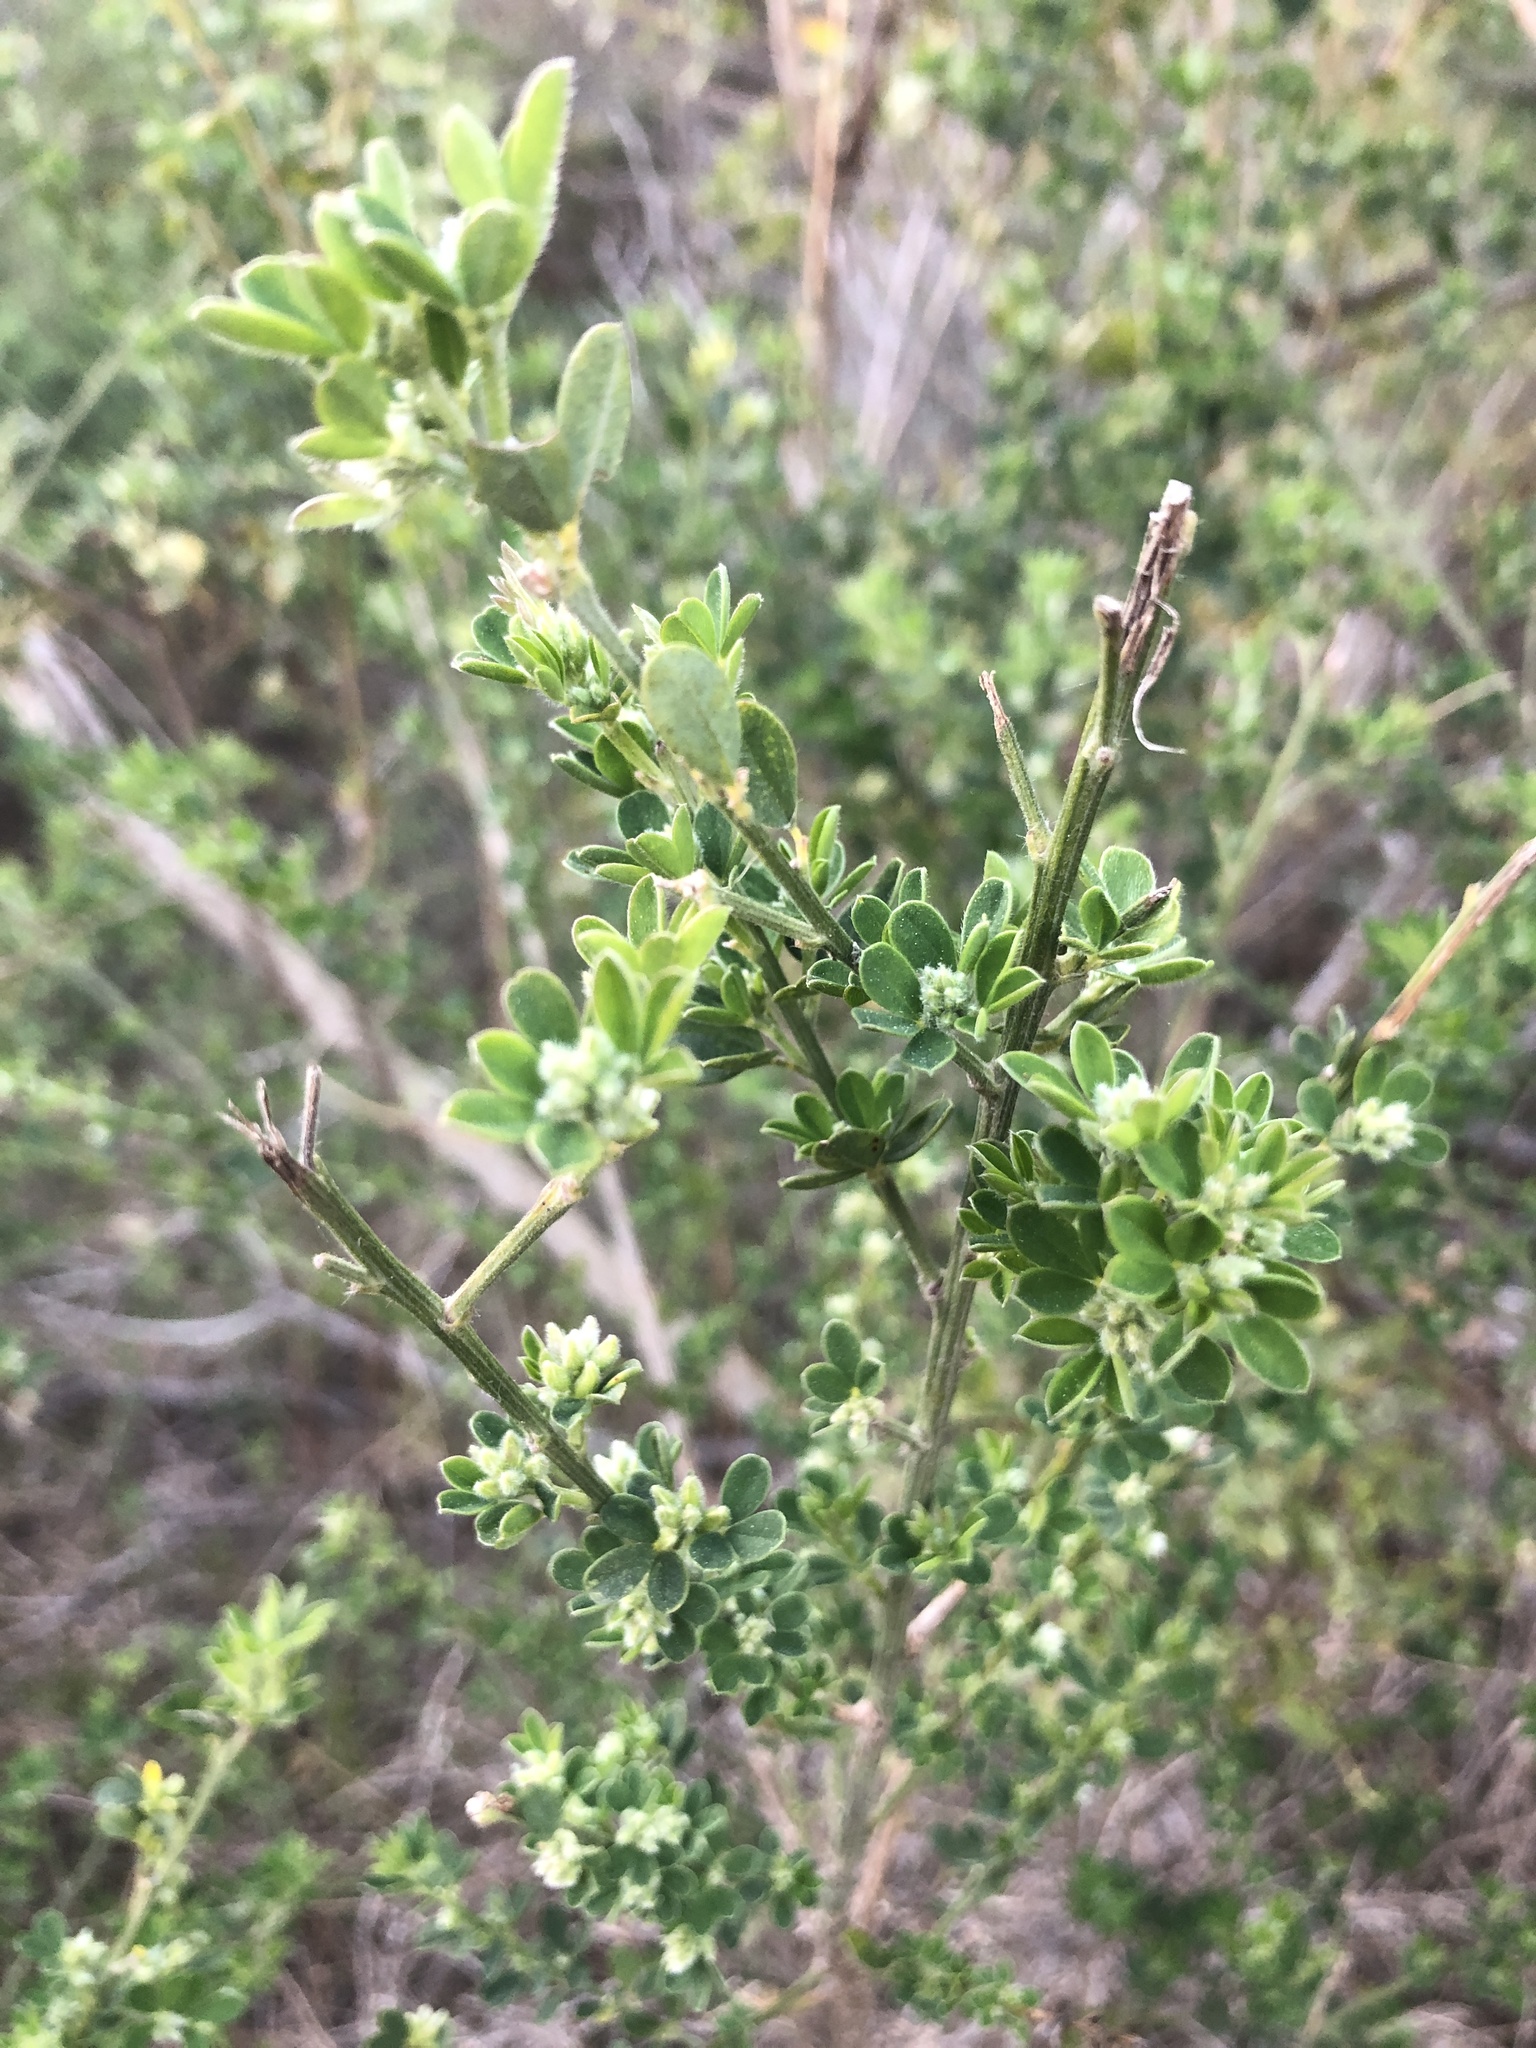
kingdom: Plantae
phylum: Tracheophyta
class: Magnoliopsida
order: Fabales
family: Fabaceae
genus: Genista
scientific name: Genista monspessulana
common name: Montpellier broom
